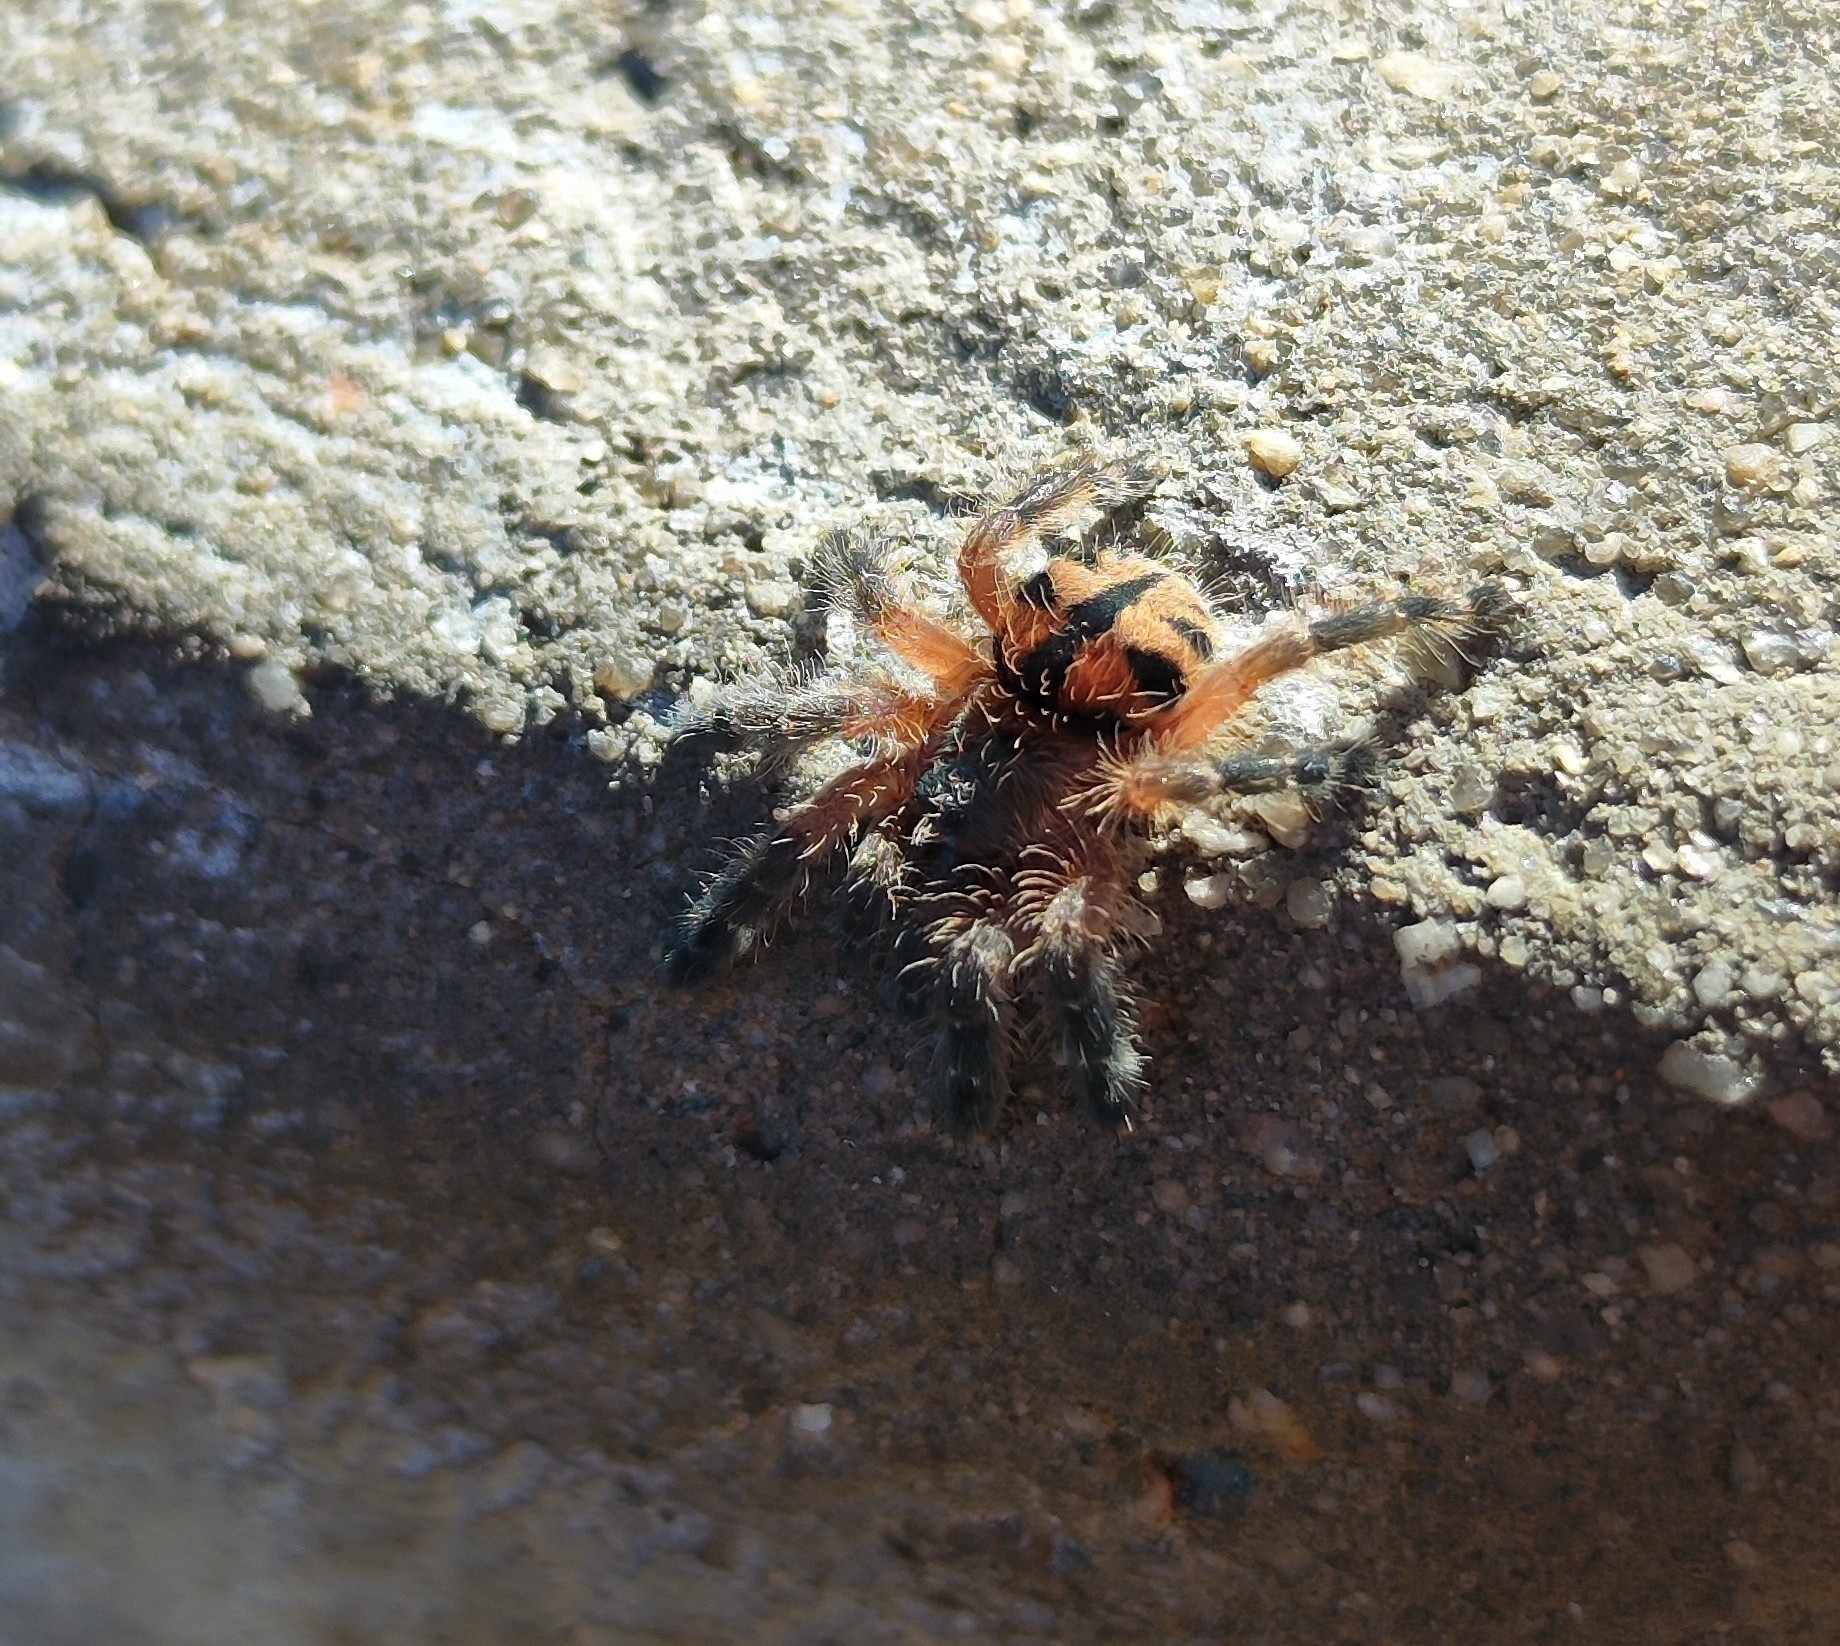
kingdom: Animalia
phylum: Arthropoda
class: Arachnida
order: Araneae
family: Theraphosidae
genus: Typhochlaena
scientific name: Typhochlaena curumim
